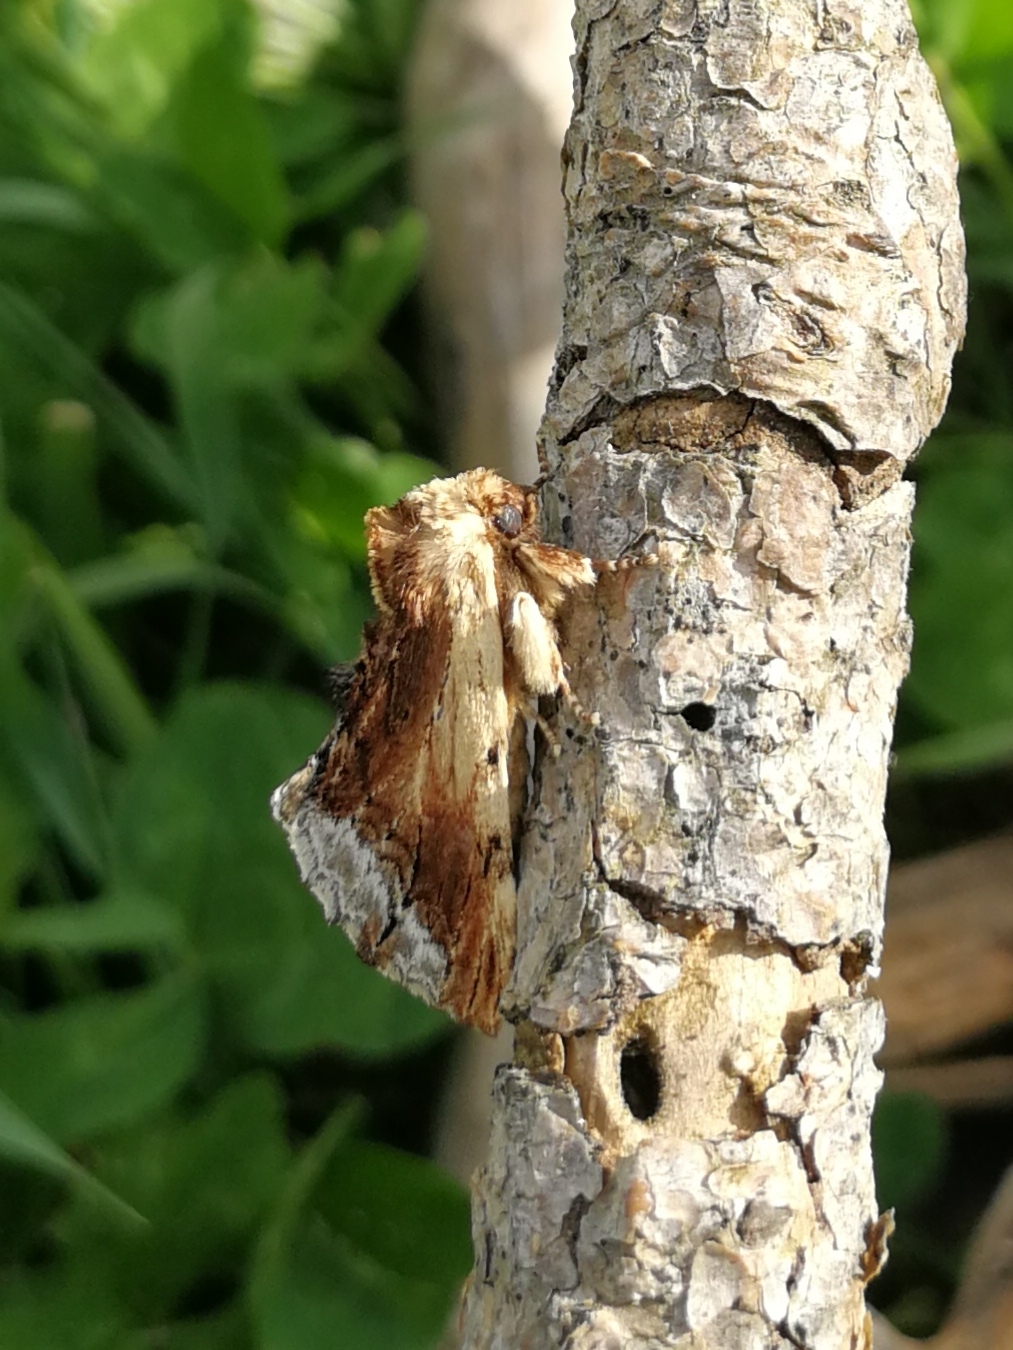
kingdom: Animalia
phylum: Arthropoda
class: Insecta
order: Lepidoptera
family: Notodontidae
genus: Ptilodon
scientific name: Ptilodon cucullina
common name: Maple prominent
